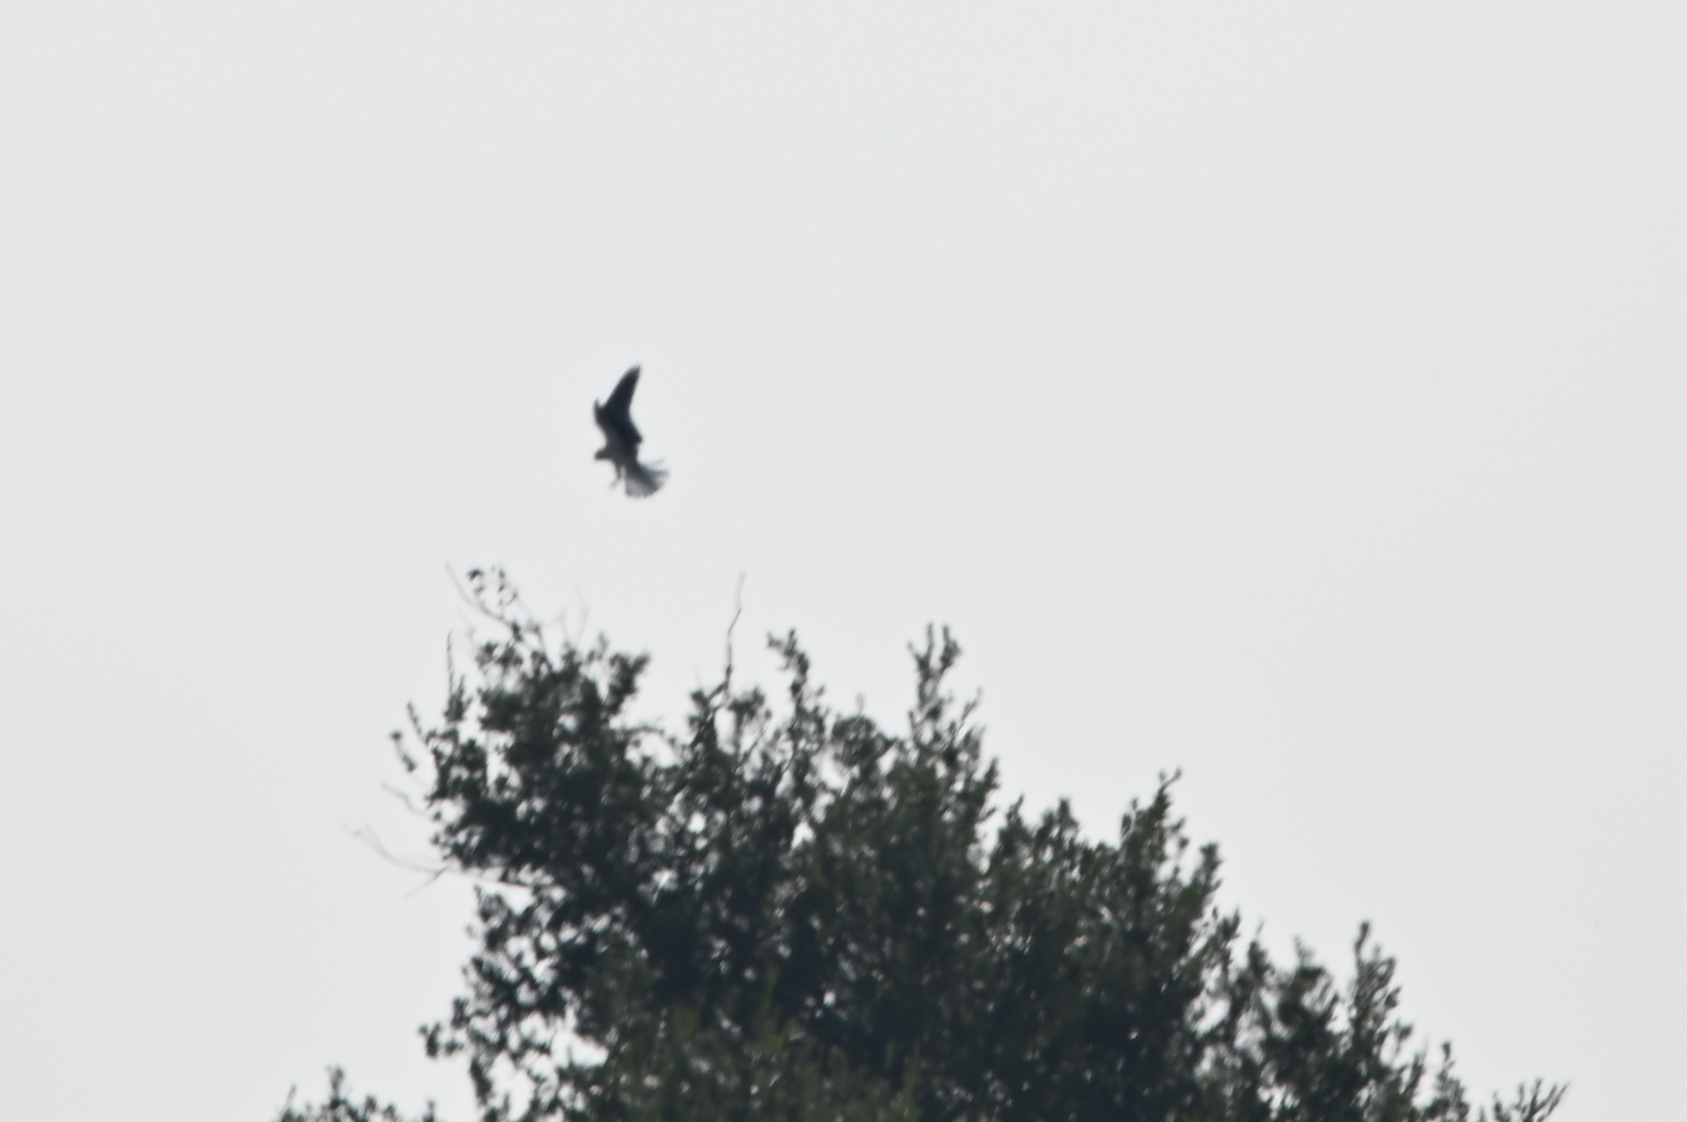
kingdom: Animalia
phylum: Chordata
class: Aves
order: Accipitriformes
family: Accipitridae
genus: Elanus
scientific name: Elanus leucurus
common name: White-tailed kite
